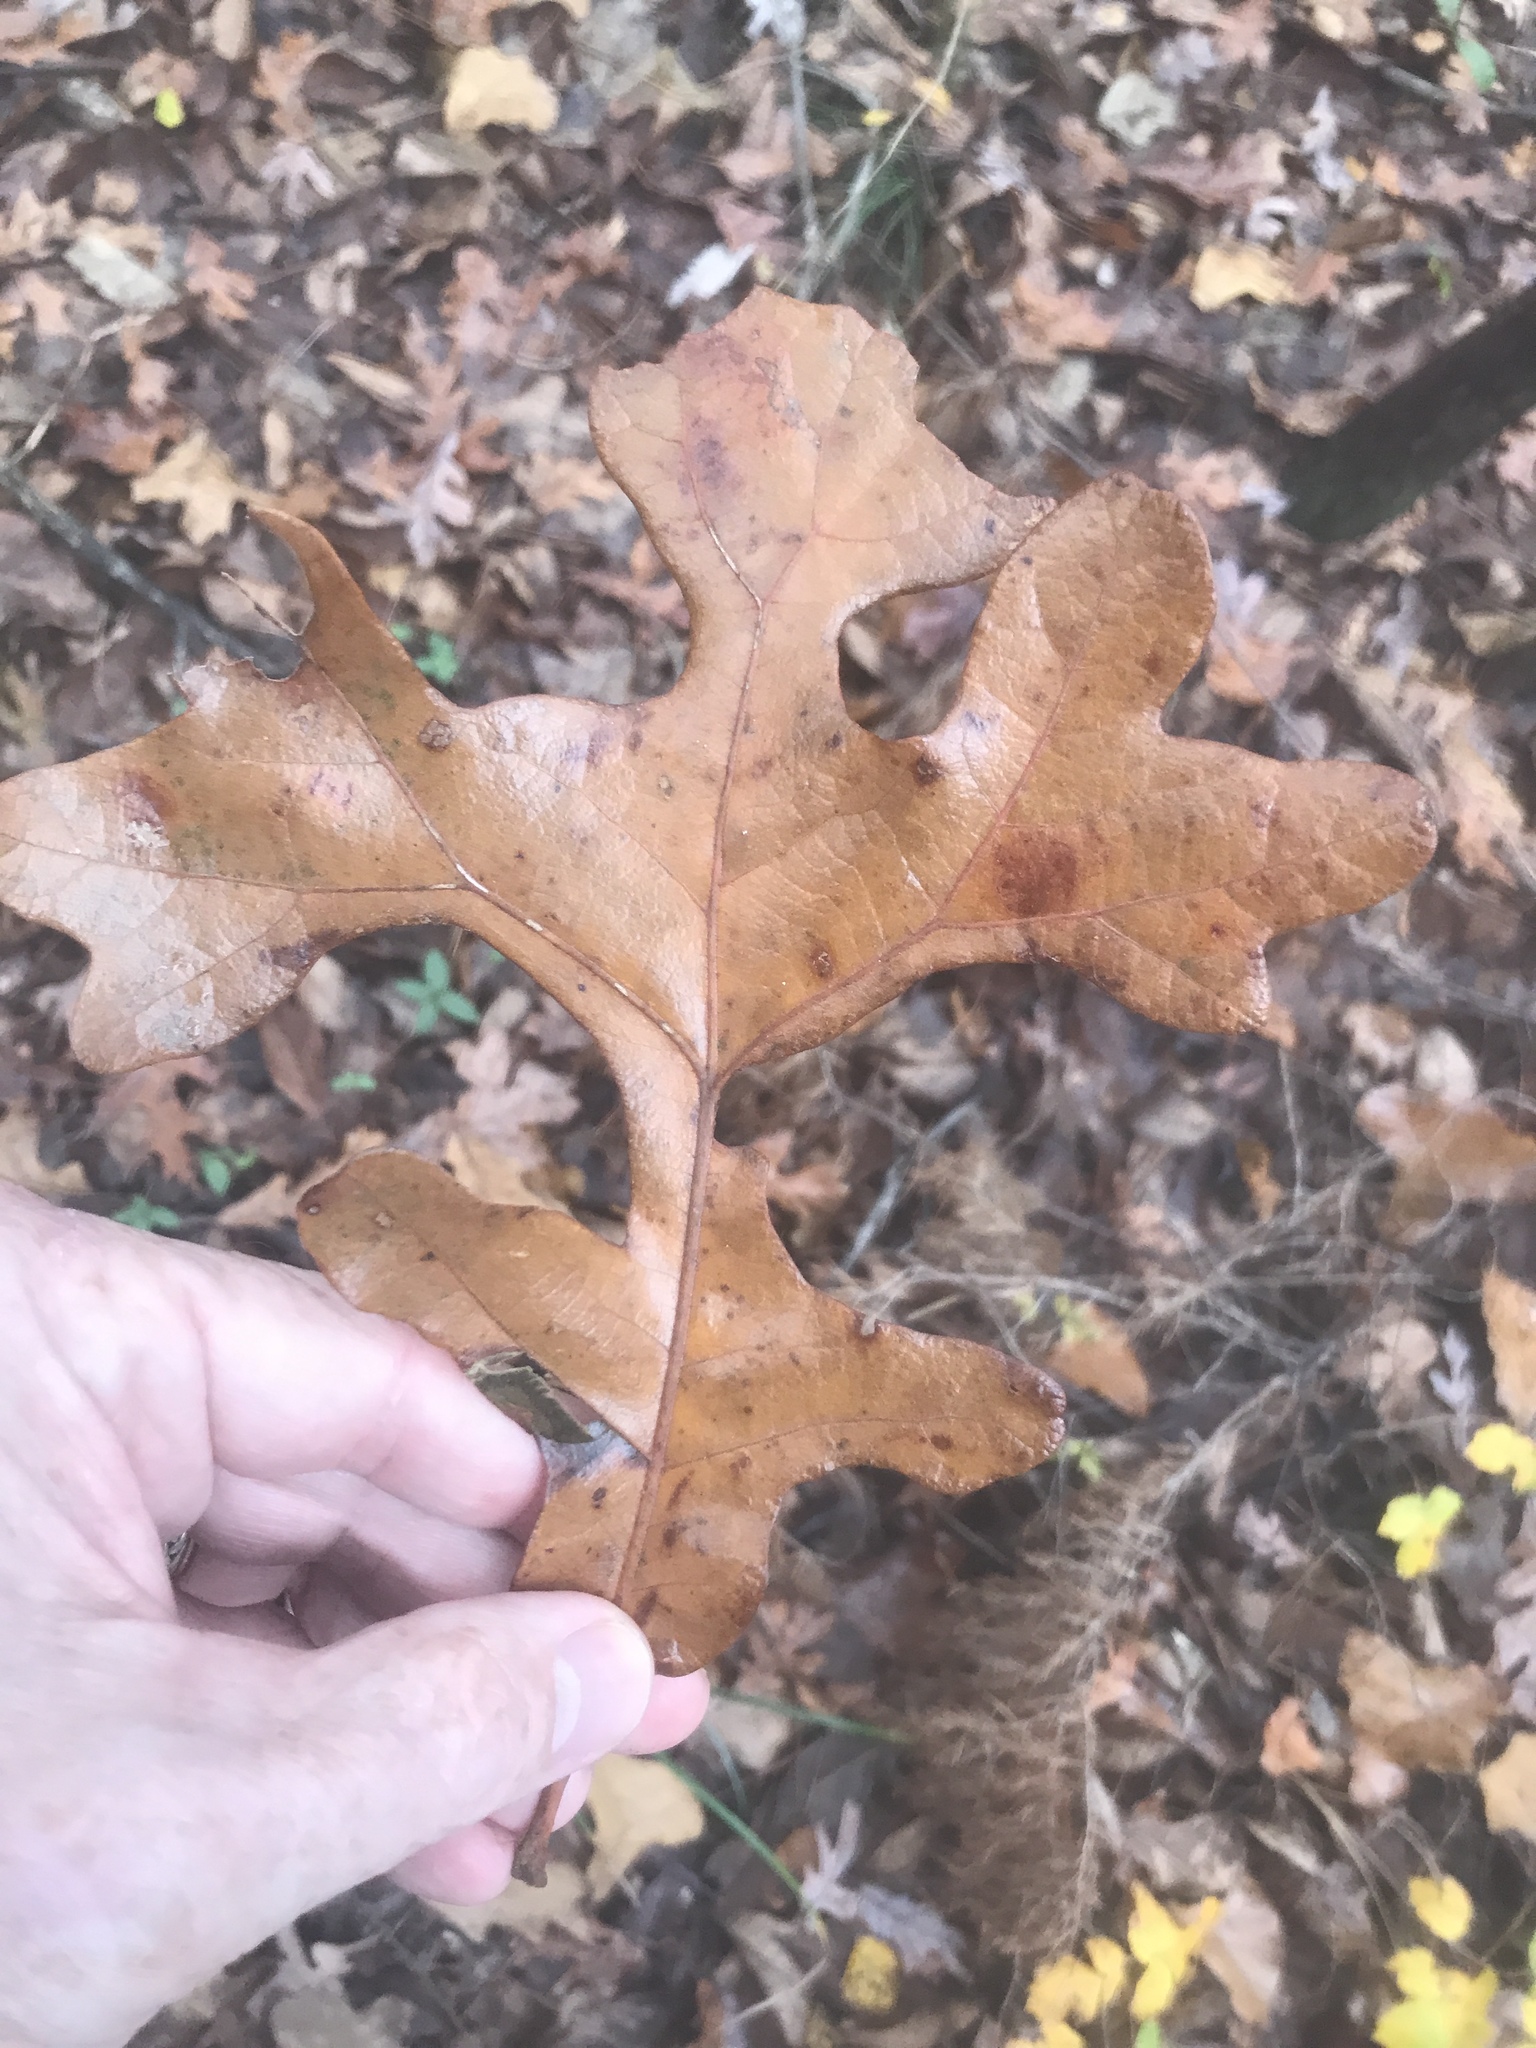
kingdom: Plantae
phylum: Tracheophyta
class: Magnoliopsida
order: Fagales
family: Fagaceae
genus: Quercus
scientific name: Quercus stellata
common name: Post oak
